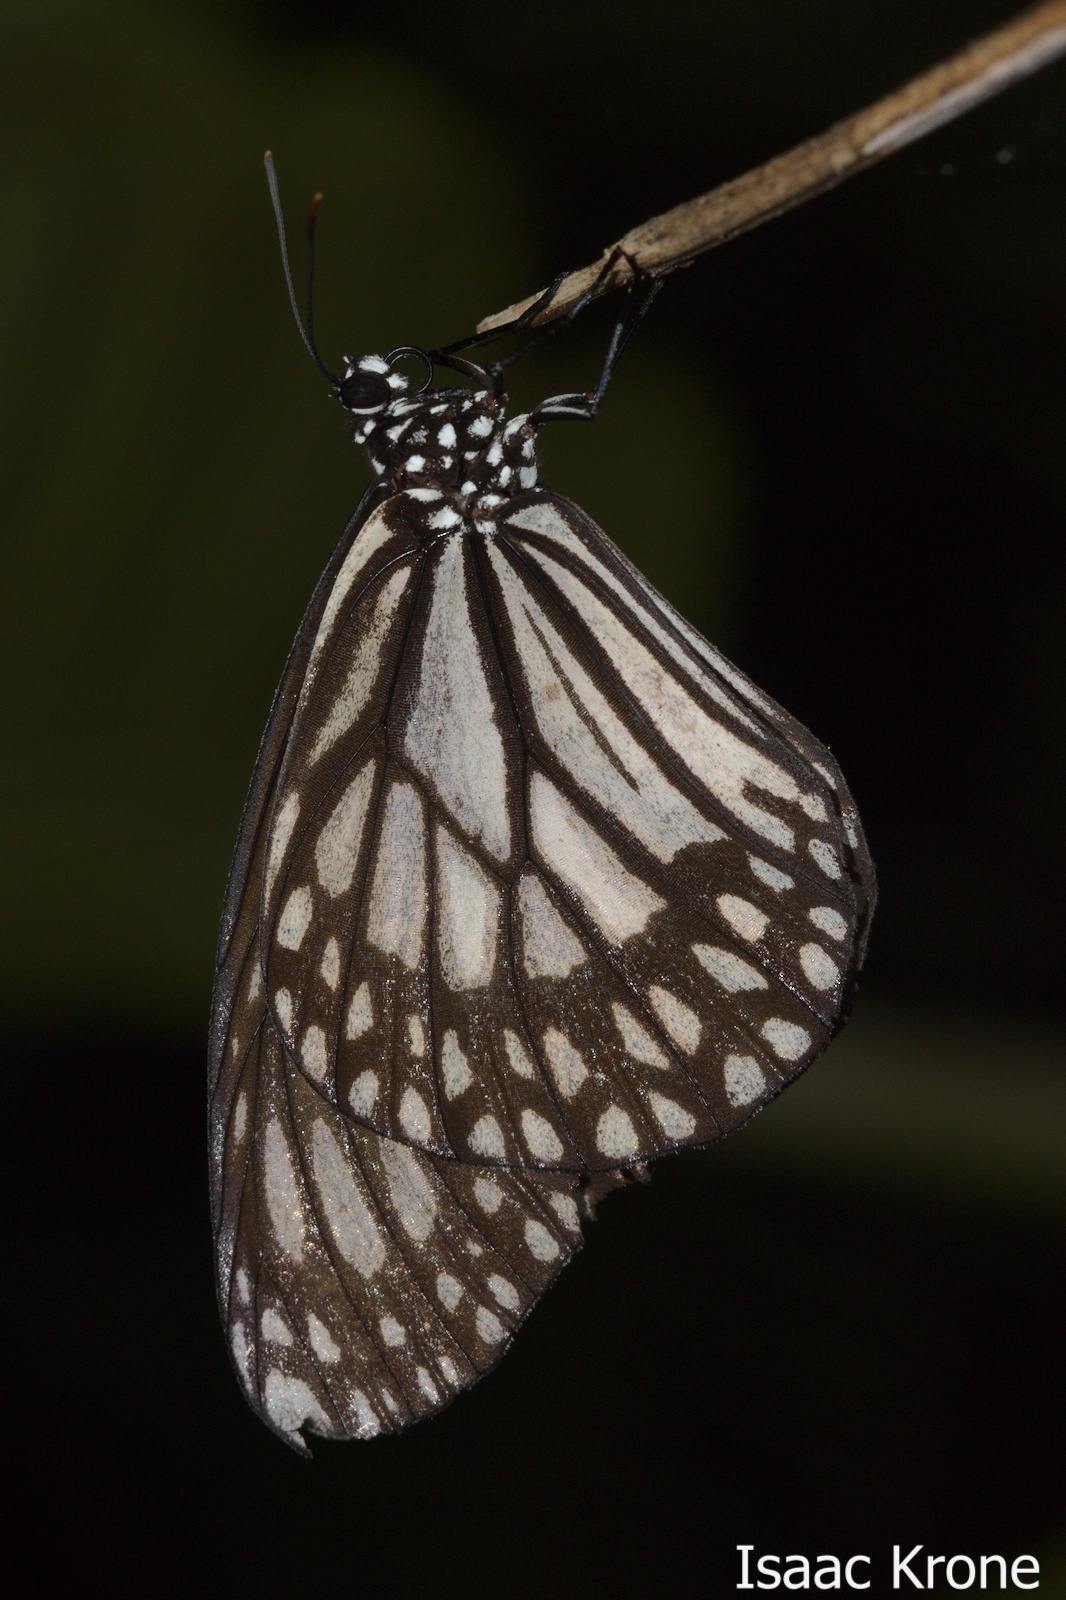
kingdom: Animalia
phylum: Arthropoda
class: Insecta
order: Lepidoptera
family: Nymphalidae
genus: Danaus
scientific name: Danaus ismare
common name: Ismare tiger butterfly
